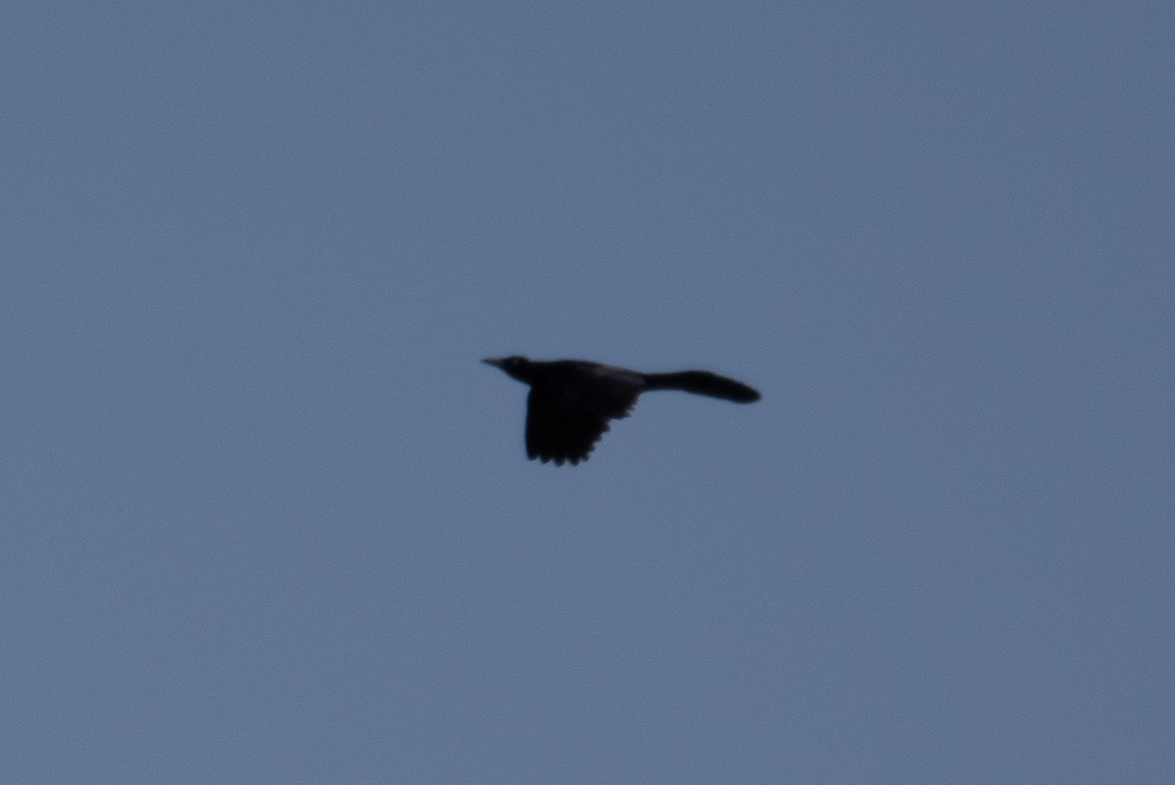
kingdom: Animalia
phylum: Chordata
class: Aves
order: Passeriformes
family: Icteridae
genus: Quiscalus
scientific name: Quiscalus mexicanus
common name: Great-tailed grackle
